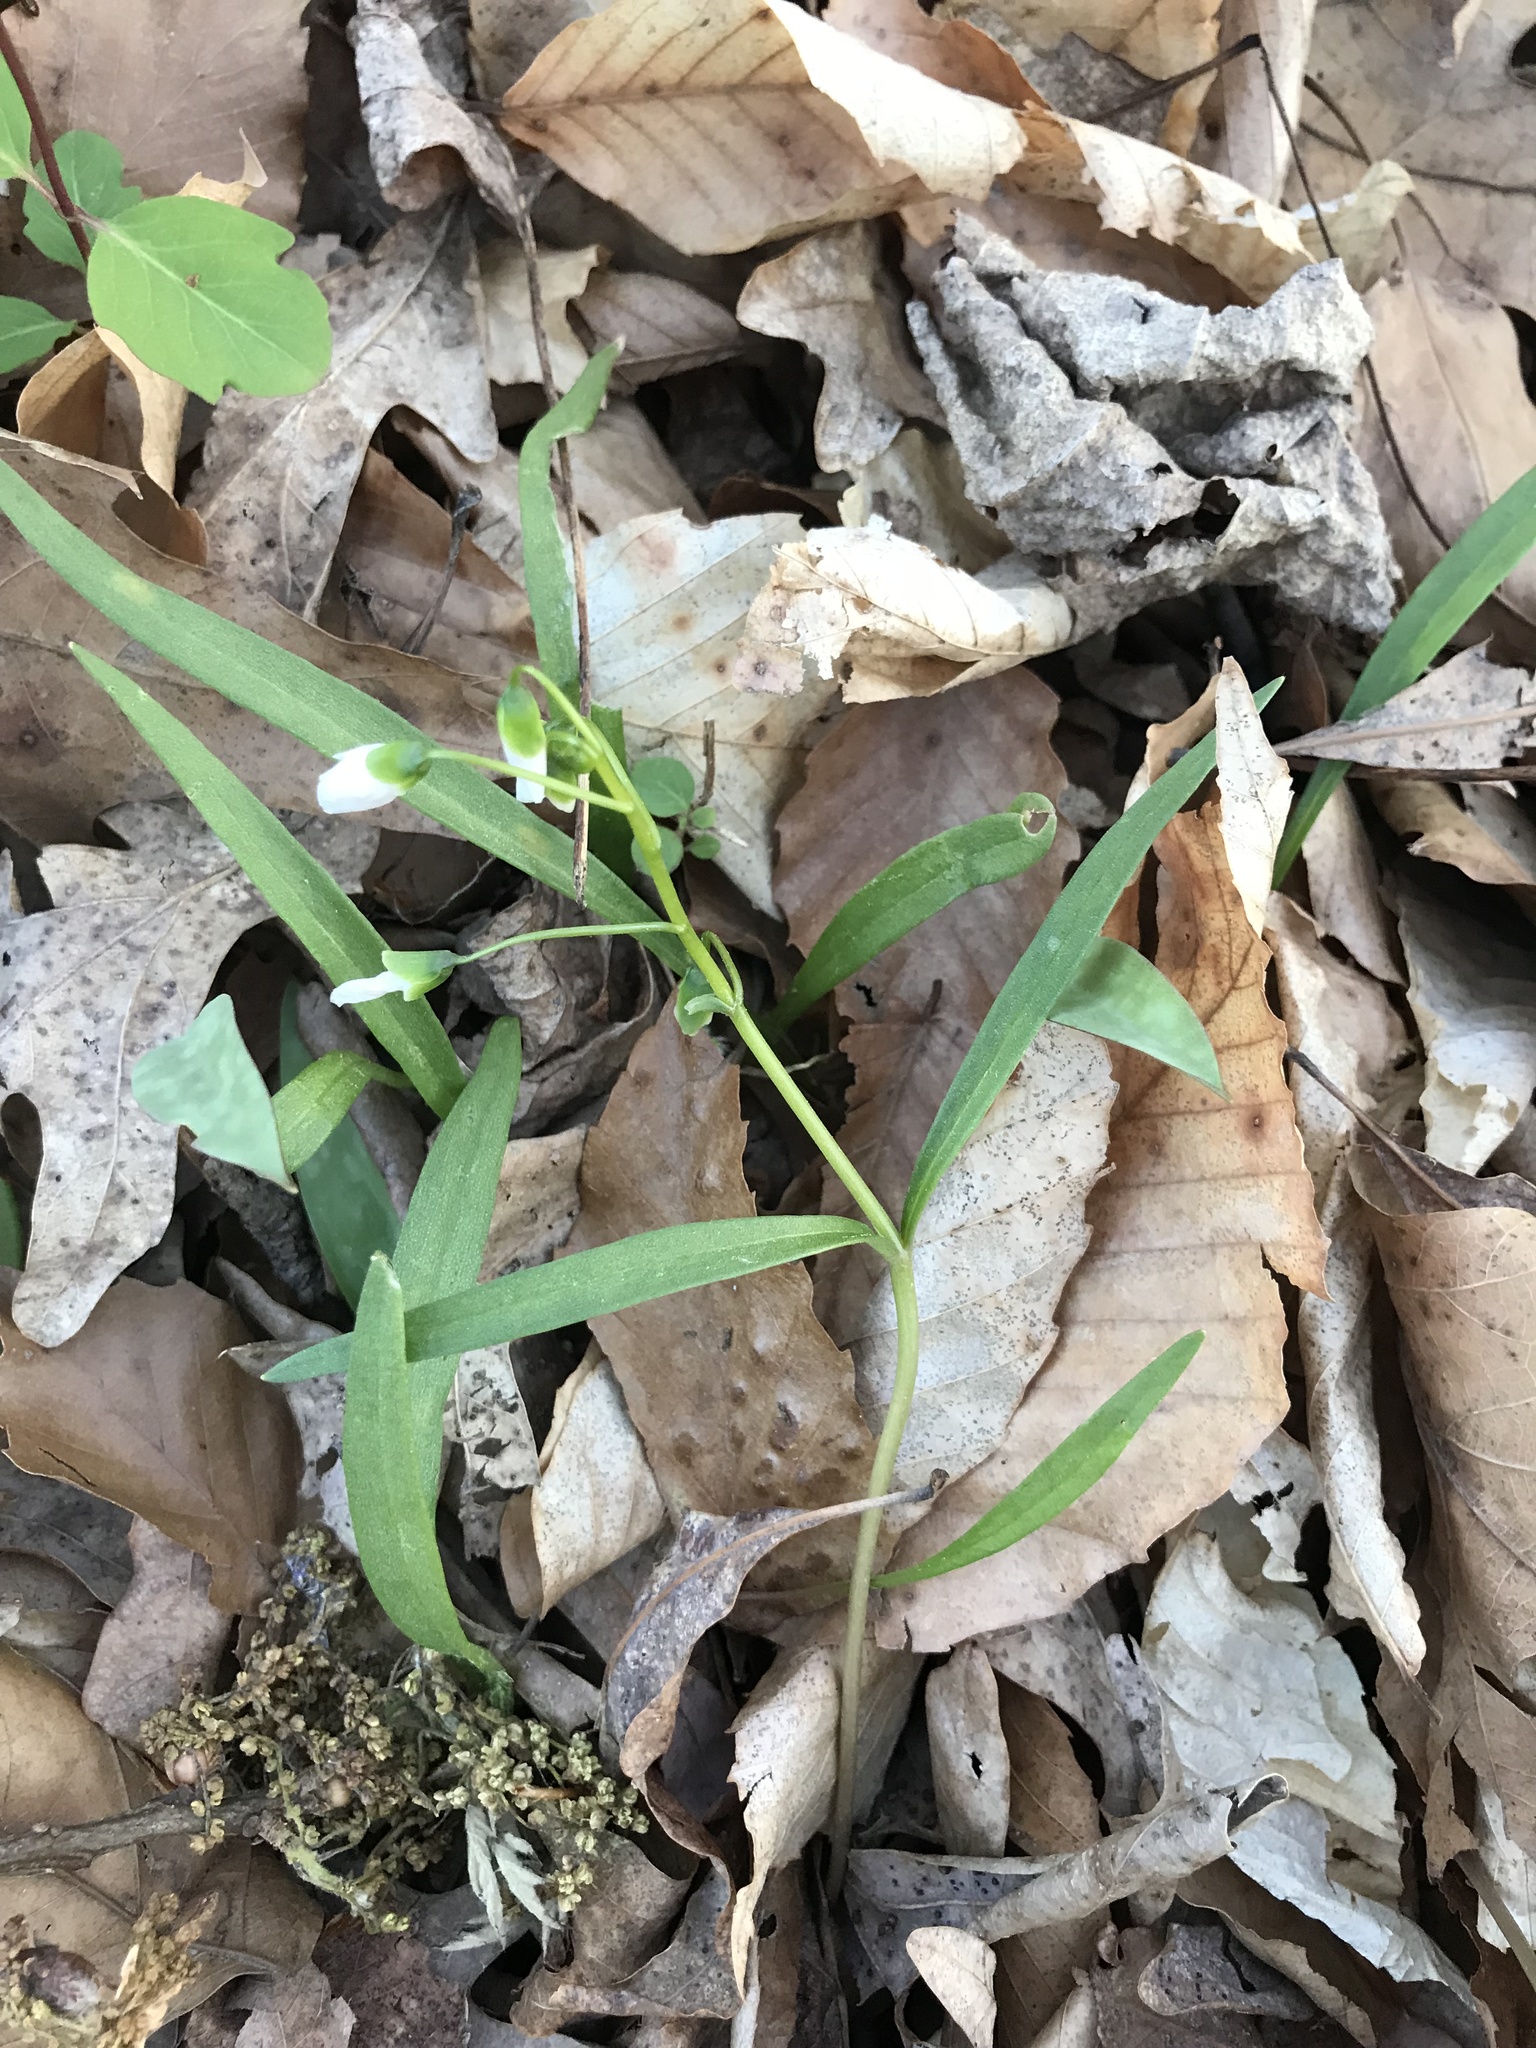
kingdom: Plantae
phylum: Tracheophyta
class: Magnoliopsida
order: Caryophyllales
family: Montiaceae
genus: Claytonia
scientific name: Claytonia virginica
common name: Virginia springbeauty
